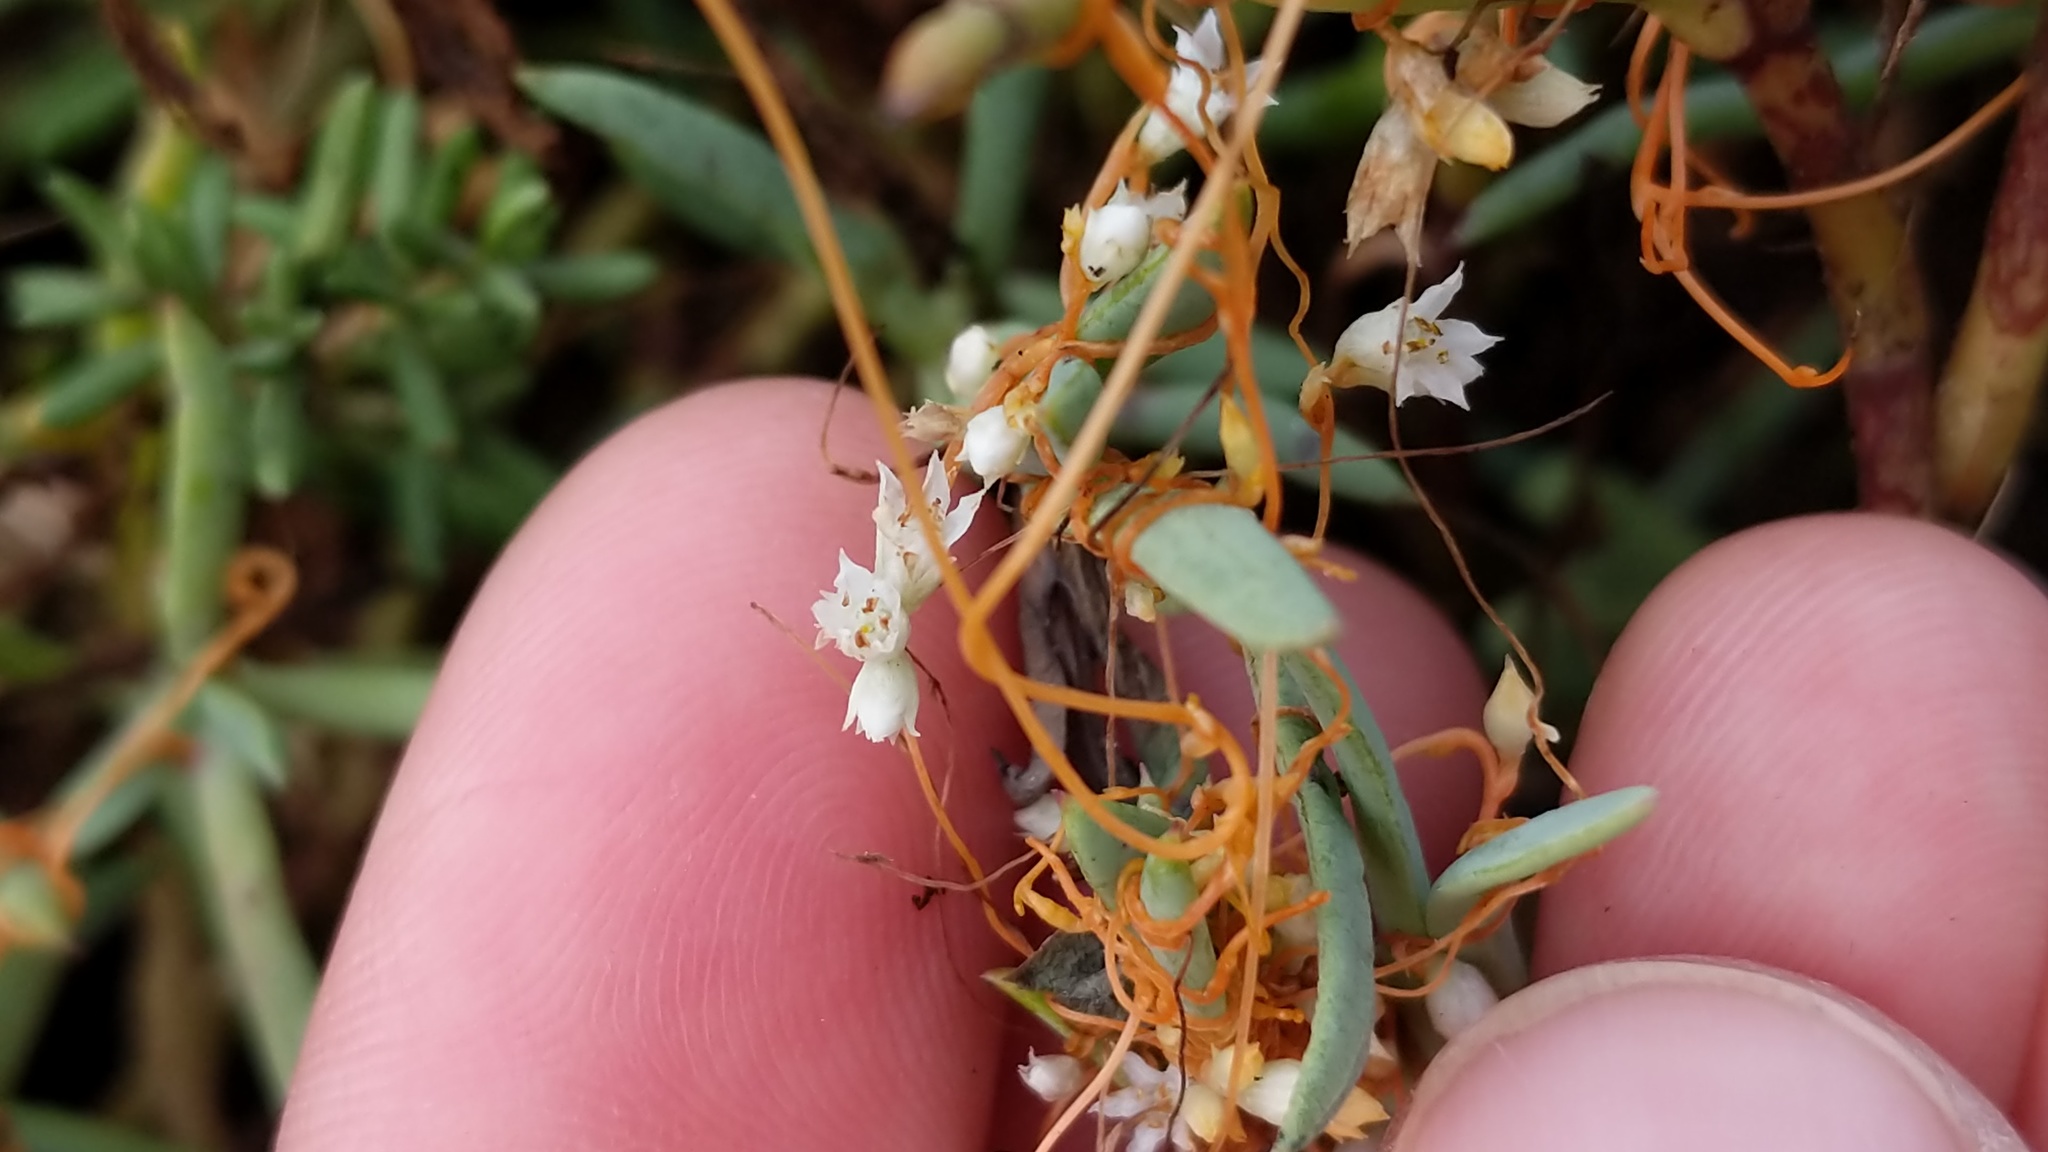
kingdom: Plantae
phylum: Tracheophyta
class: Magnoliopsida
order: Solanales
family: Convolvulaceae
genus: Cuscuta
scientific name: Cuscuta pacifica
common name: Large saltmarsh dodder
